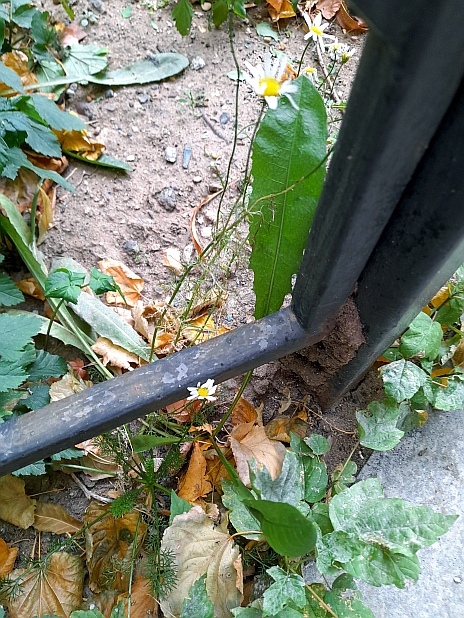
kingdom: Plantae
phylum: Tracheophyta
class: Magnoliopsida
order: Asterales
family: Asteraceae
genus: Tripleurospermum
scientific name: Tripleurospermum inodorum
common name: Scentless mayweed
